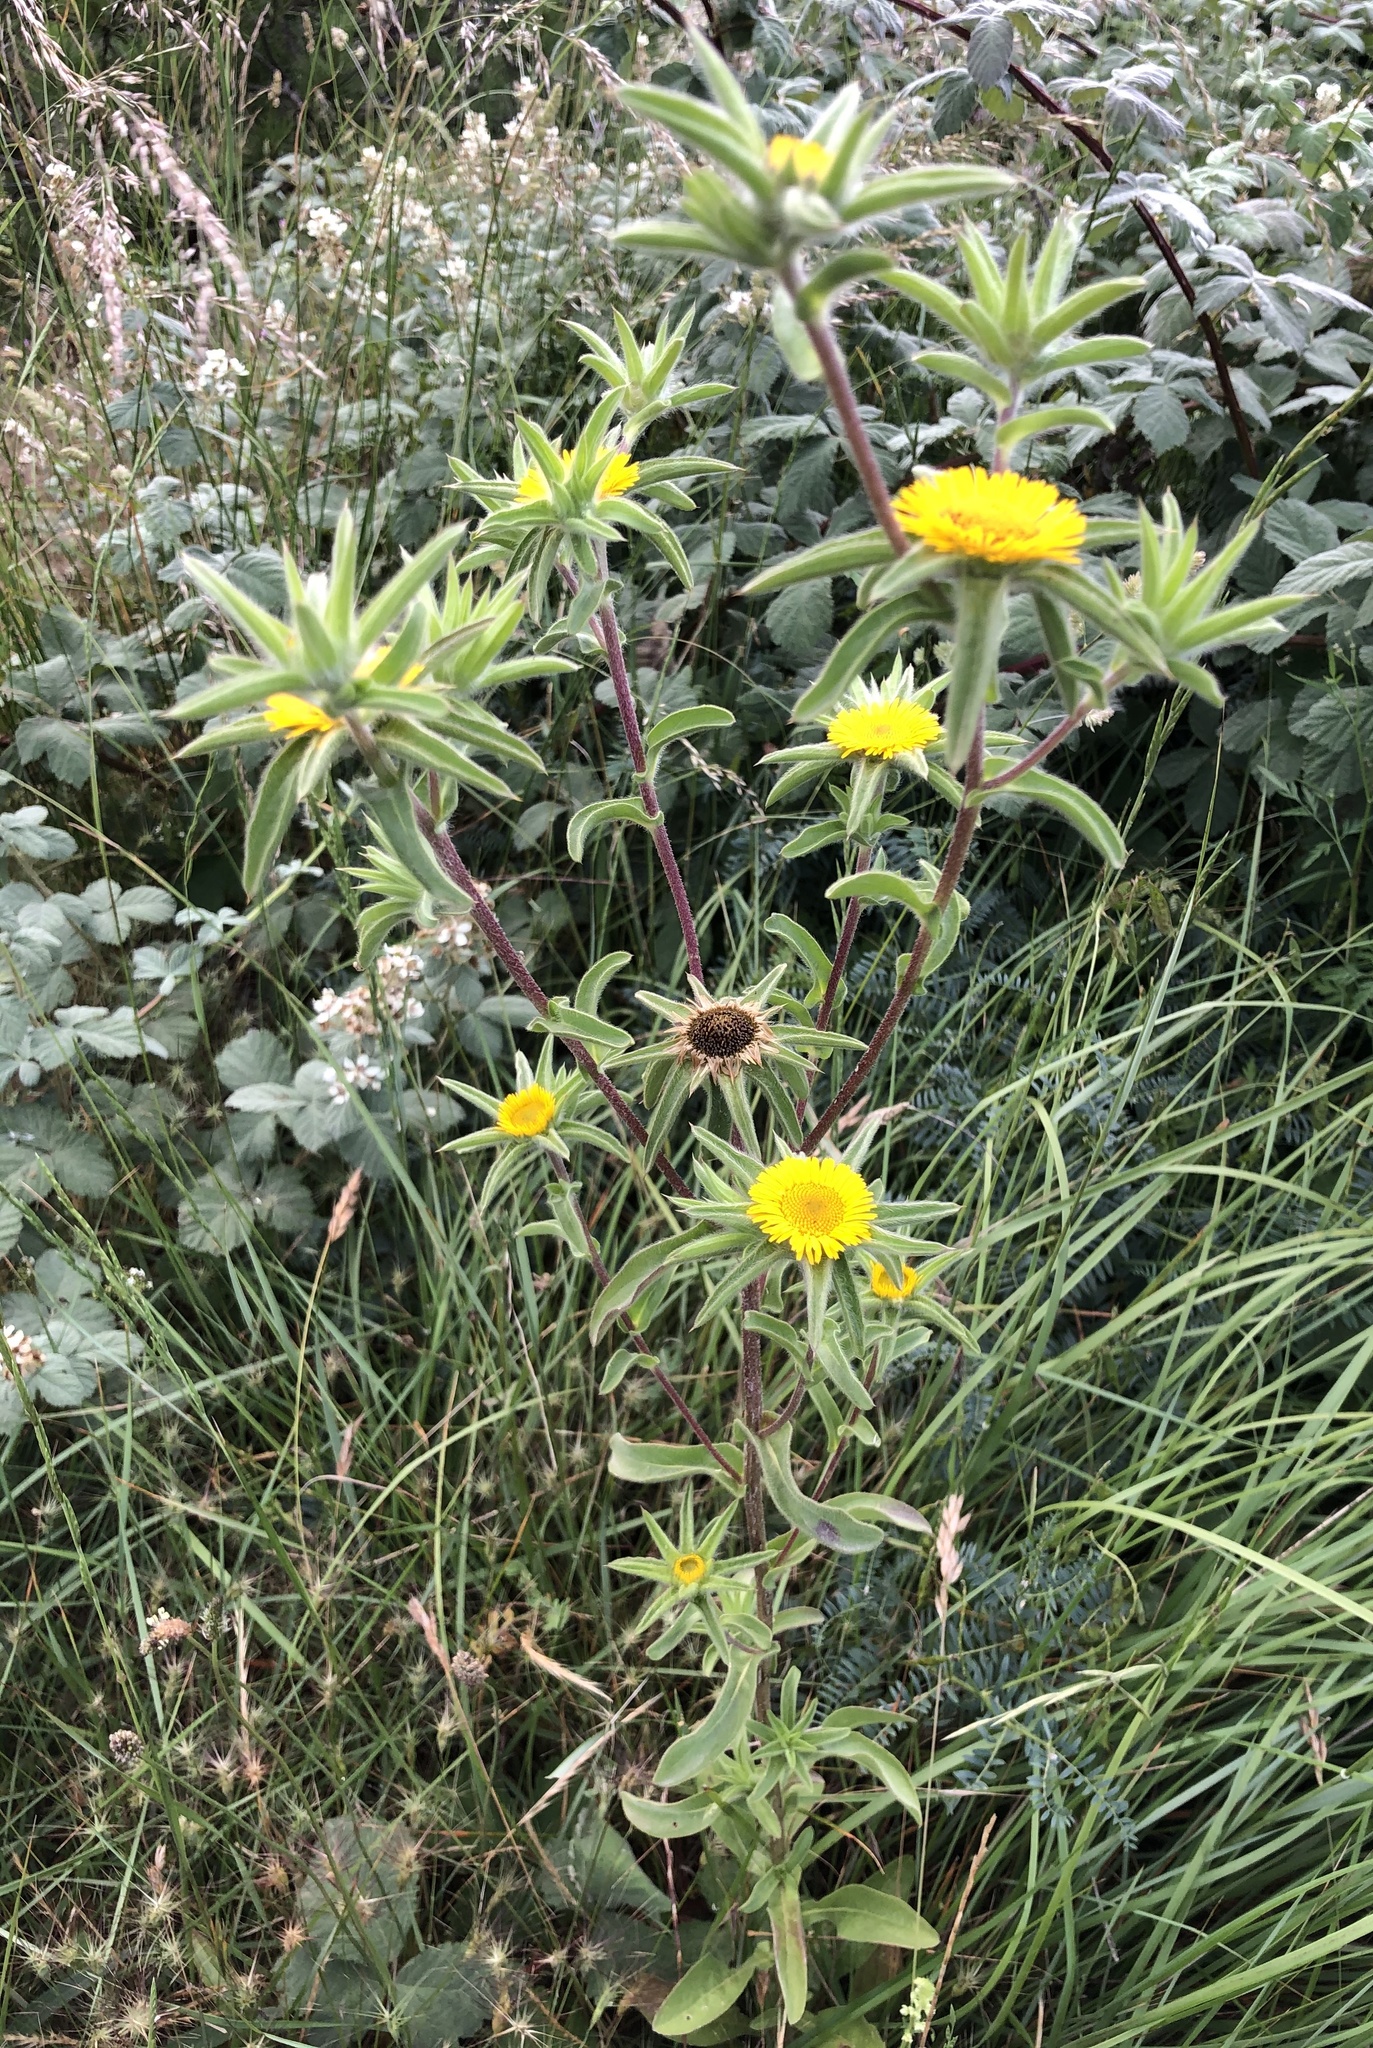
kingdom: Plantae
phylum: Tracheophyta
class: Magnoliopsida
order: Asterales
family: Asteraceae
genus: Pallenis
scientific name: Pallenis spinosa
